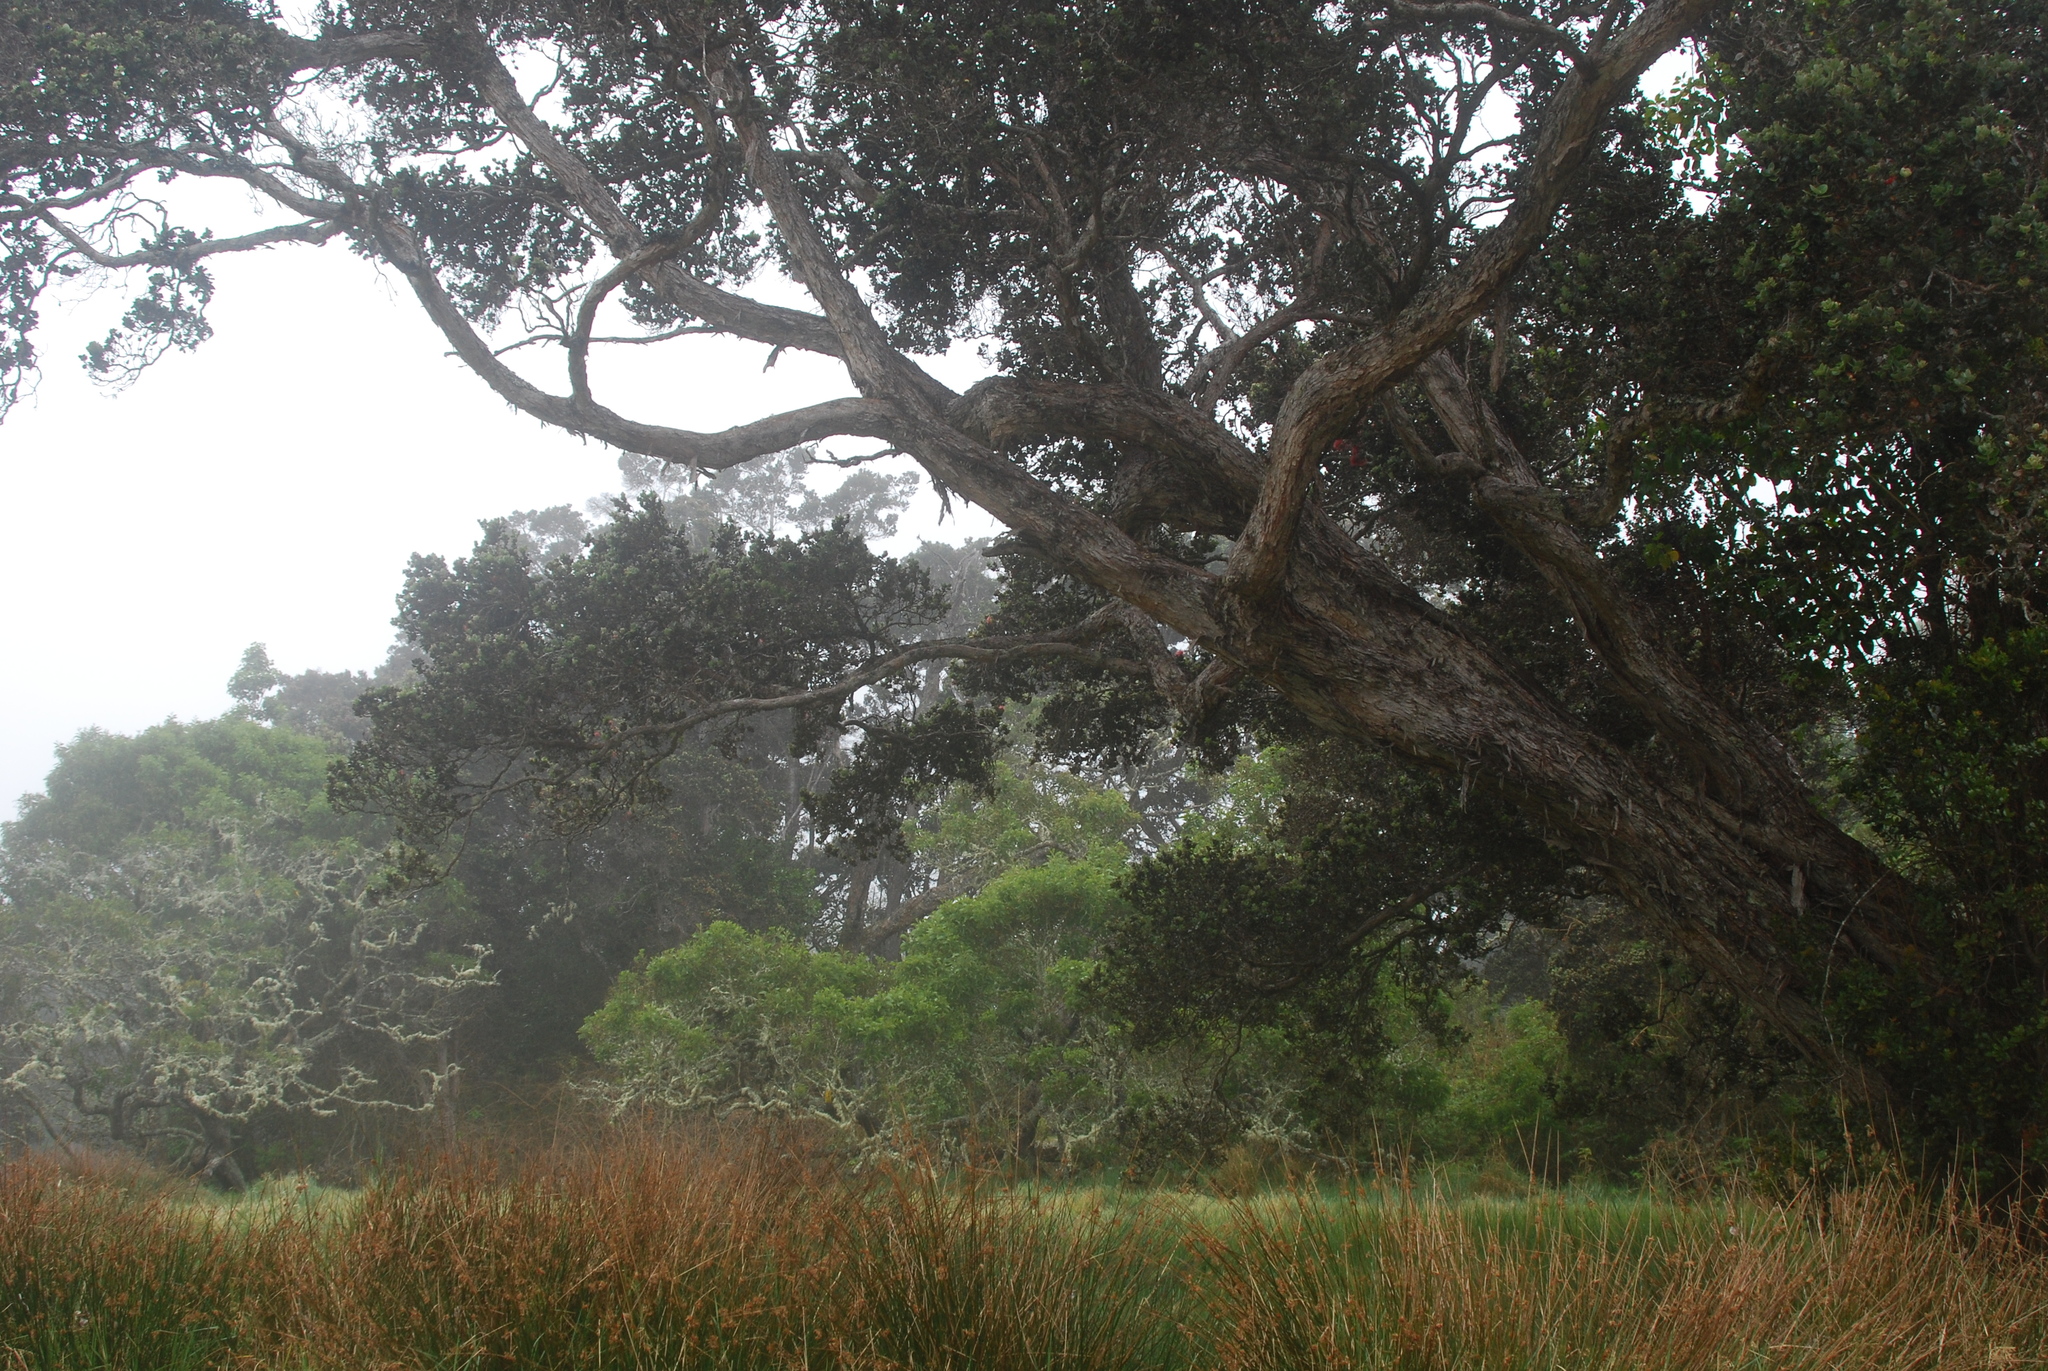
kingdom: Plantae
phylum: Tracheophyta
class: Magnoliopsida
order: Myrtales
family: Myrtaceae
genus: Metrosideros
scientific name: Metrosideros polymorpha
